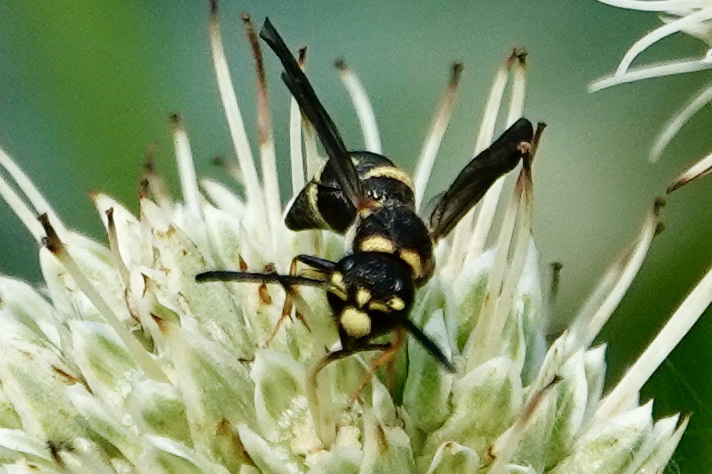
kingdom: Animalia
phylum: Arthropoda
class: Insecta
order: Hymenoptera
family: Eumenidae
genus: Parancistrocerus
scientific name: Parancistrocerus pedestris
